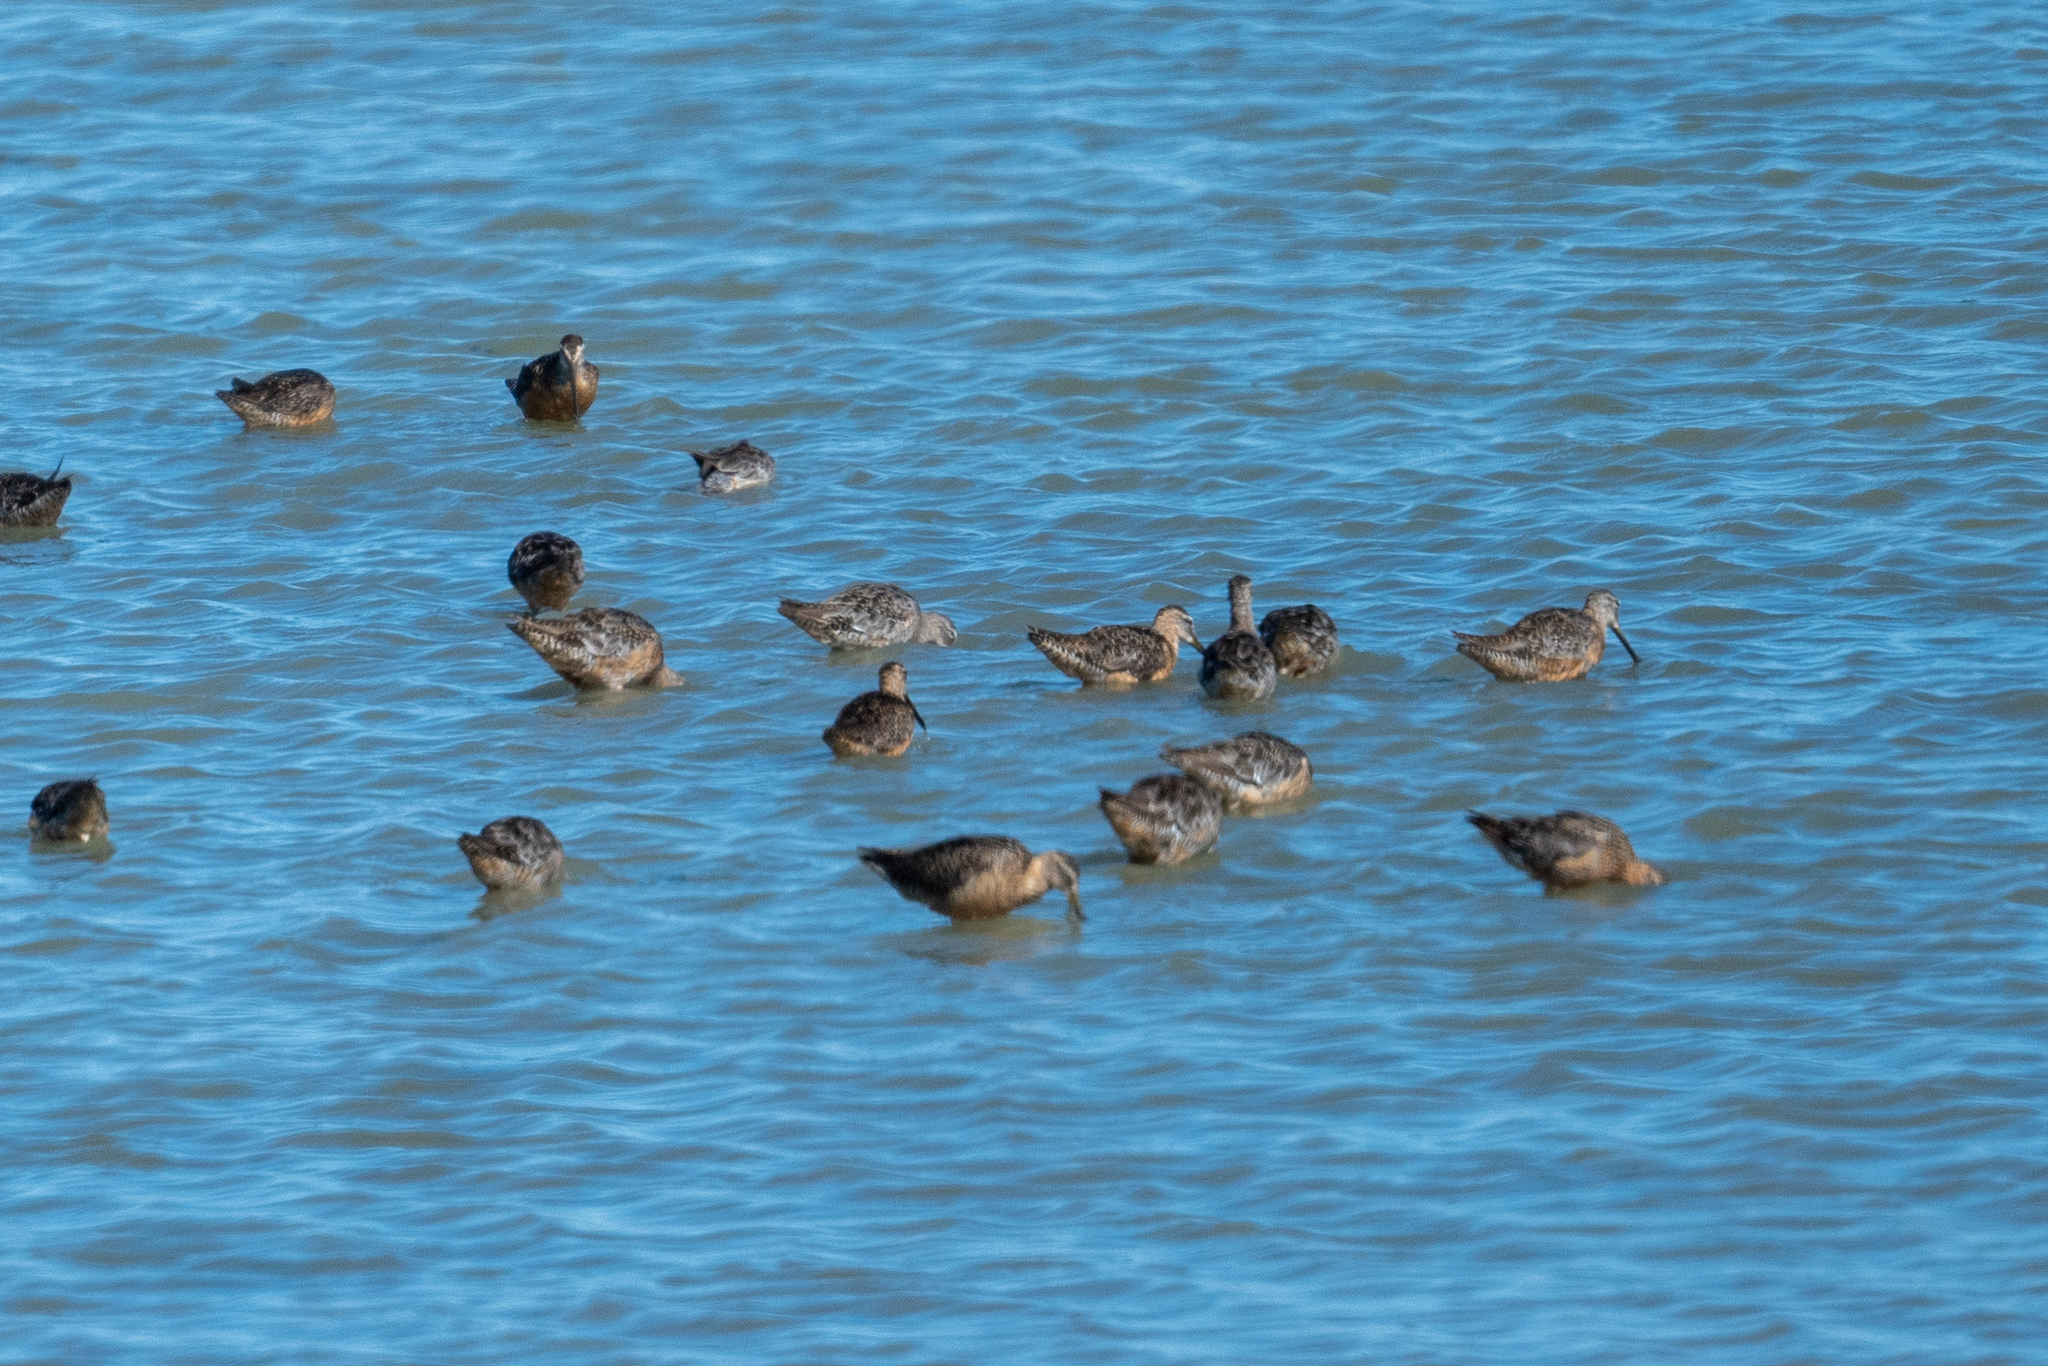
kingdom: Animalia
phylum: Chordata
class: Aves
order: Charadriiformes
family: Scolopacidae
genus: Limnodromus
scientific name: Limnodromus scolopaceus
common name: Long-billed dowitcher
